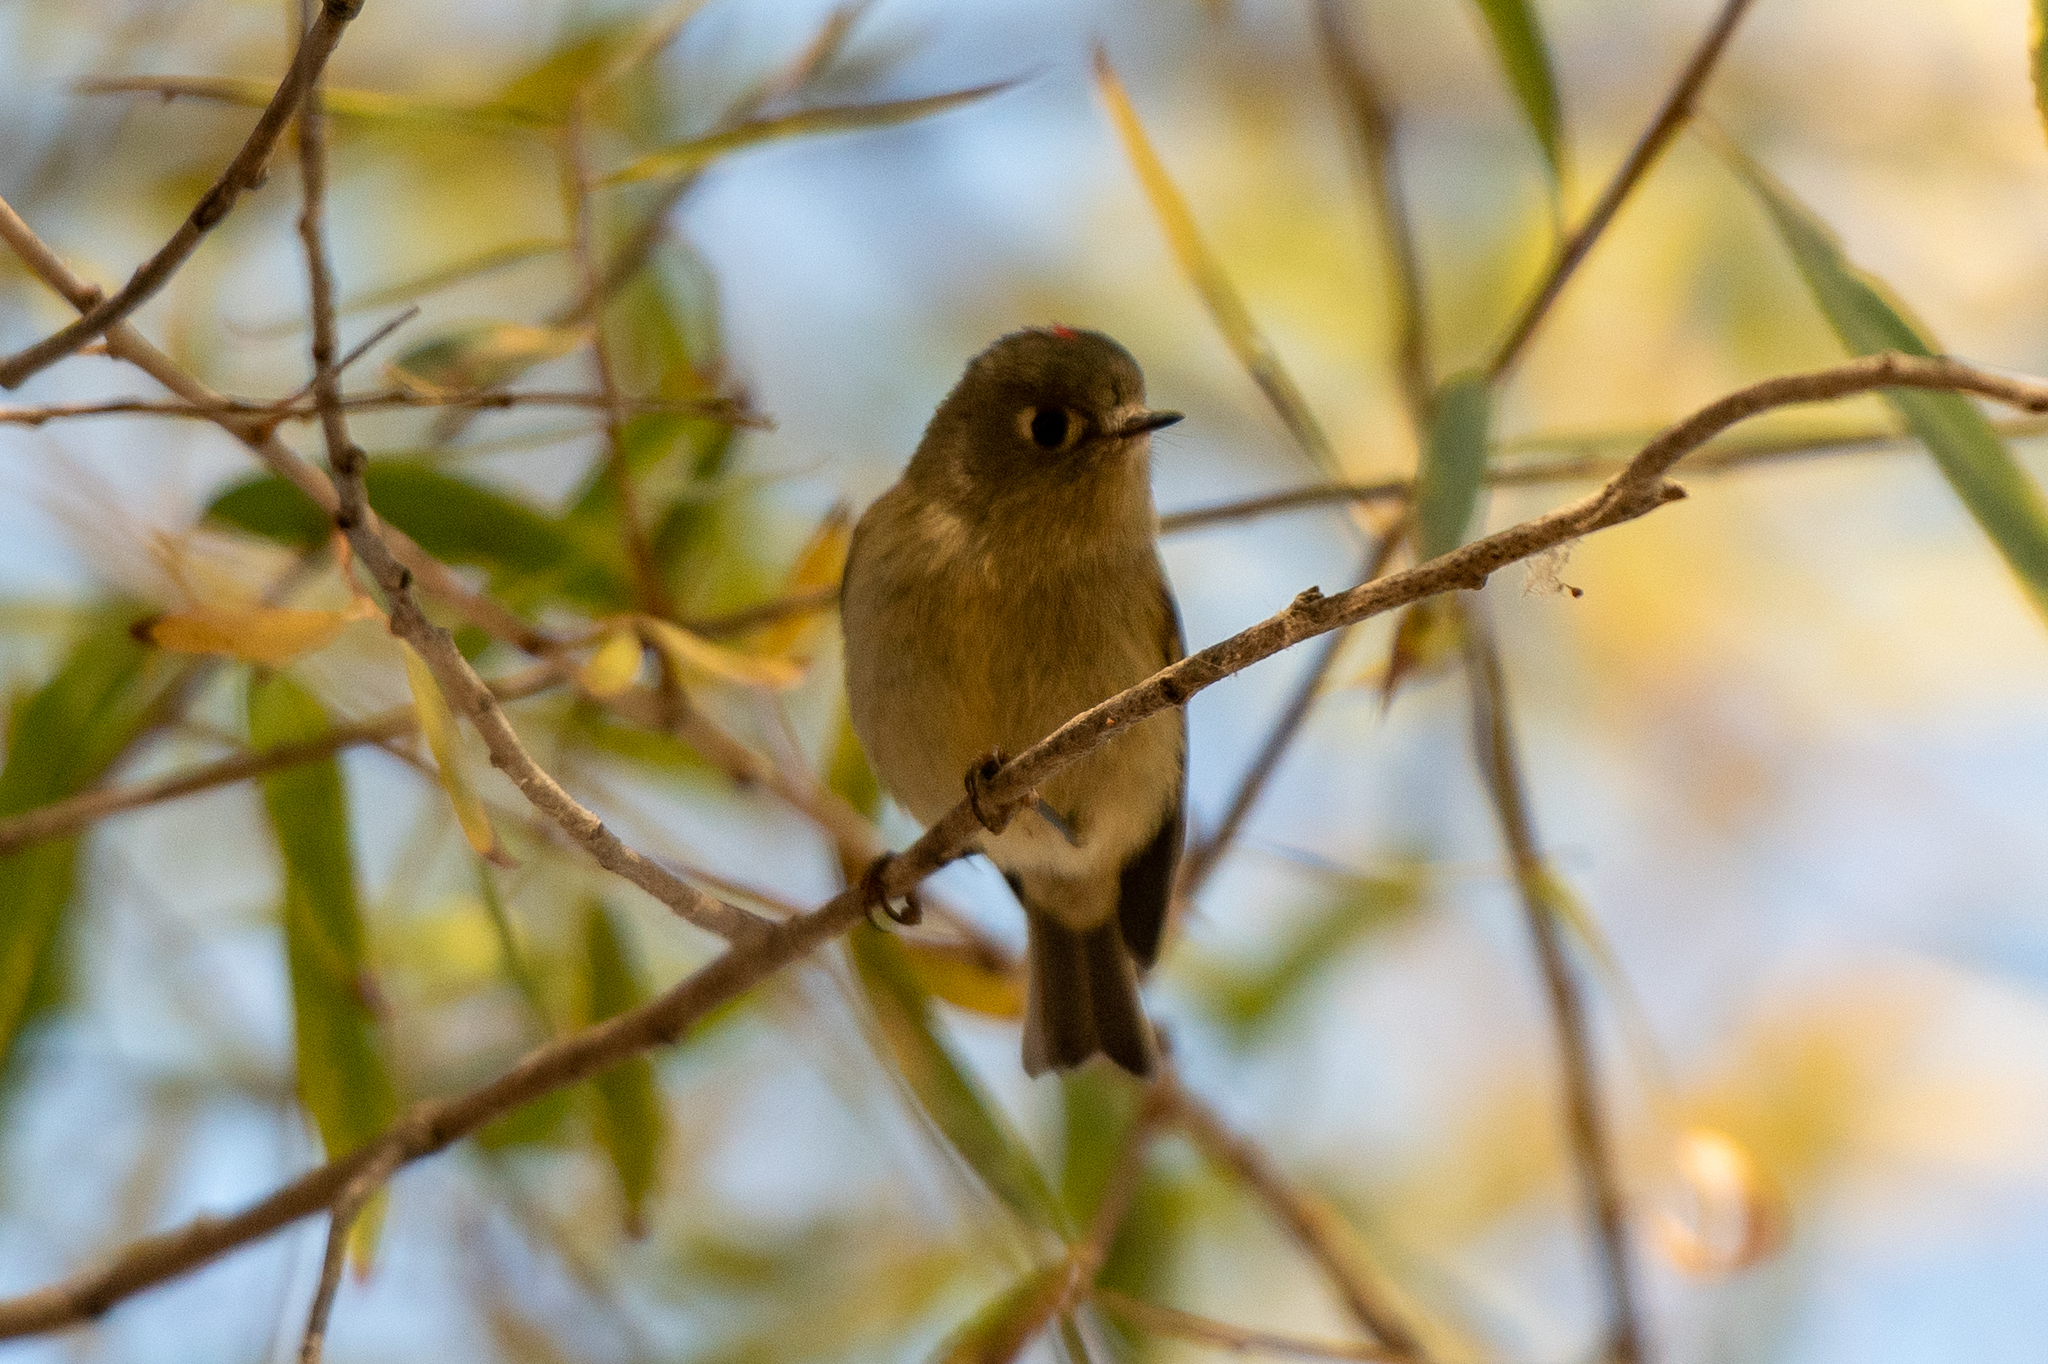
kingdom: Animalia
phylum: Chordata
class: Aves
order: Passeriformes
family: Regulidae
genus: Regulus
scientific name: Regulus calendula
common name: Ruby-crowned kinglet
